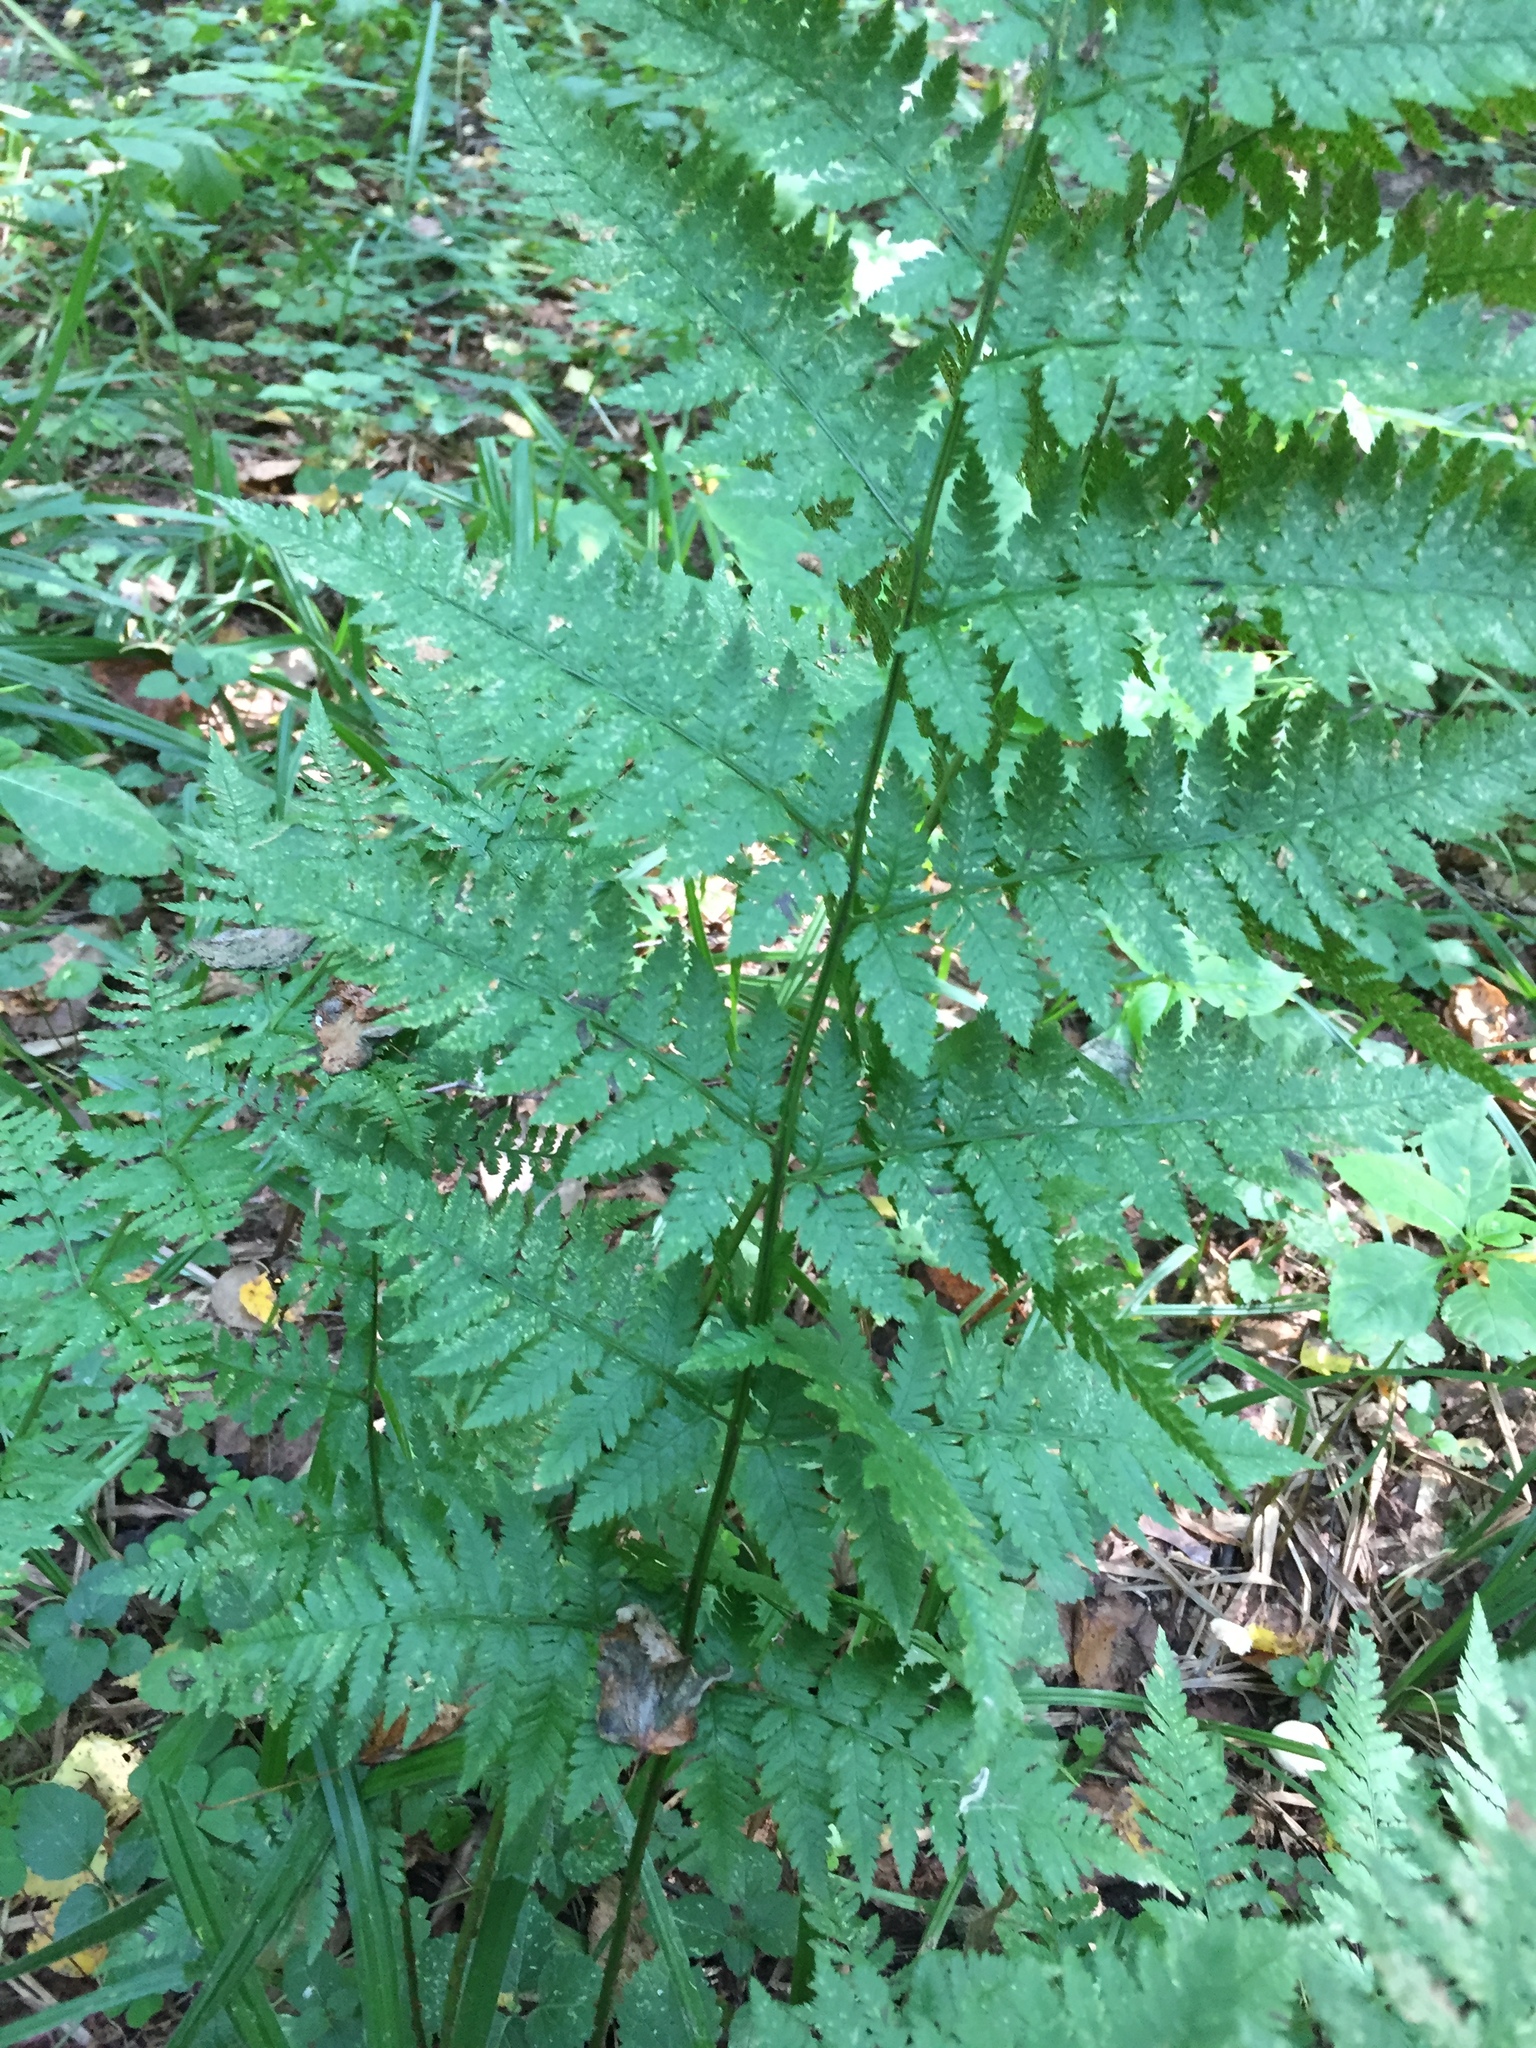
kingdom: Plantae
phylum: Tracheophyta
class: Polypodiopsida
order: Polypodiales
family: Dryopteridaceae
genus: Dryopteris
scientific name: Dryopteris carthusiana
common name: Narrow buckler-fern
